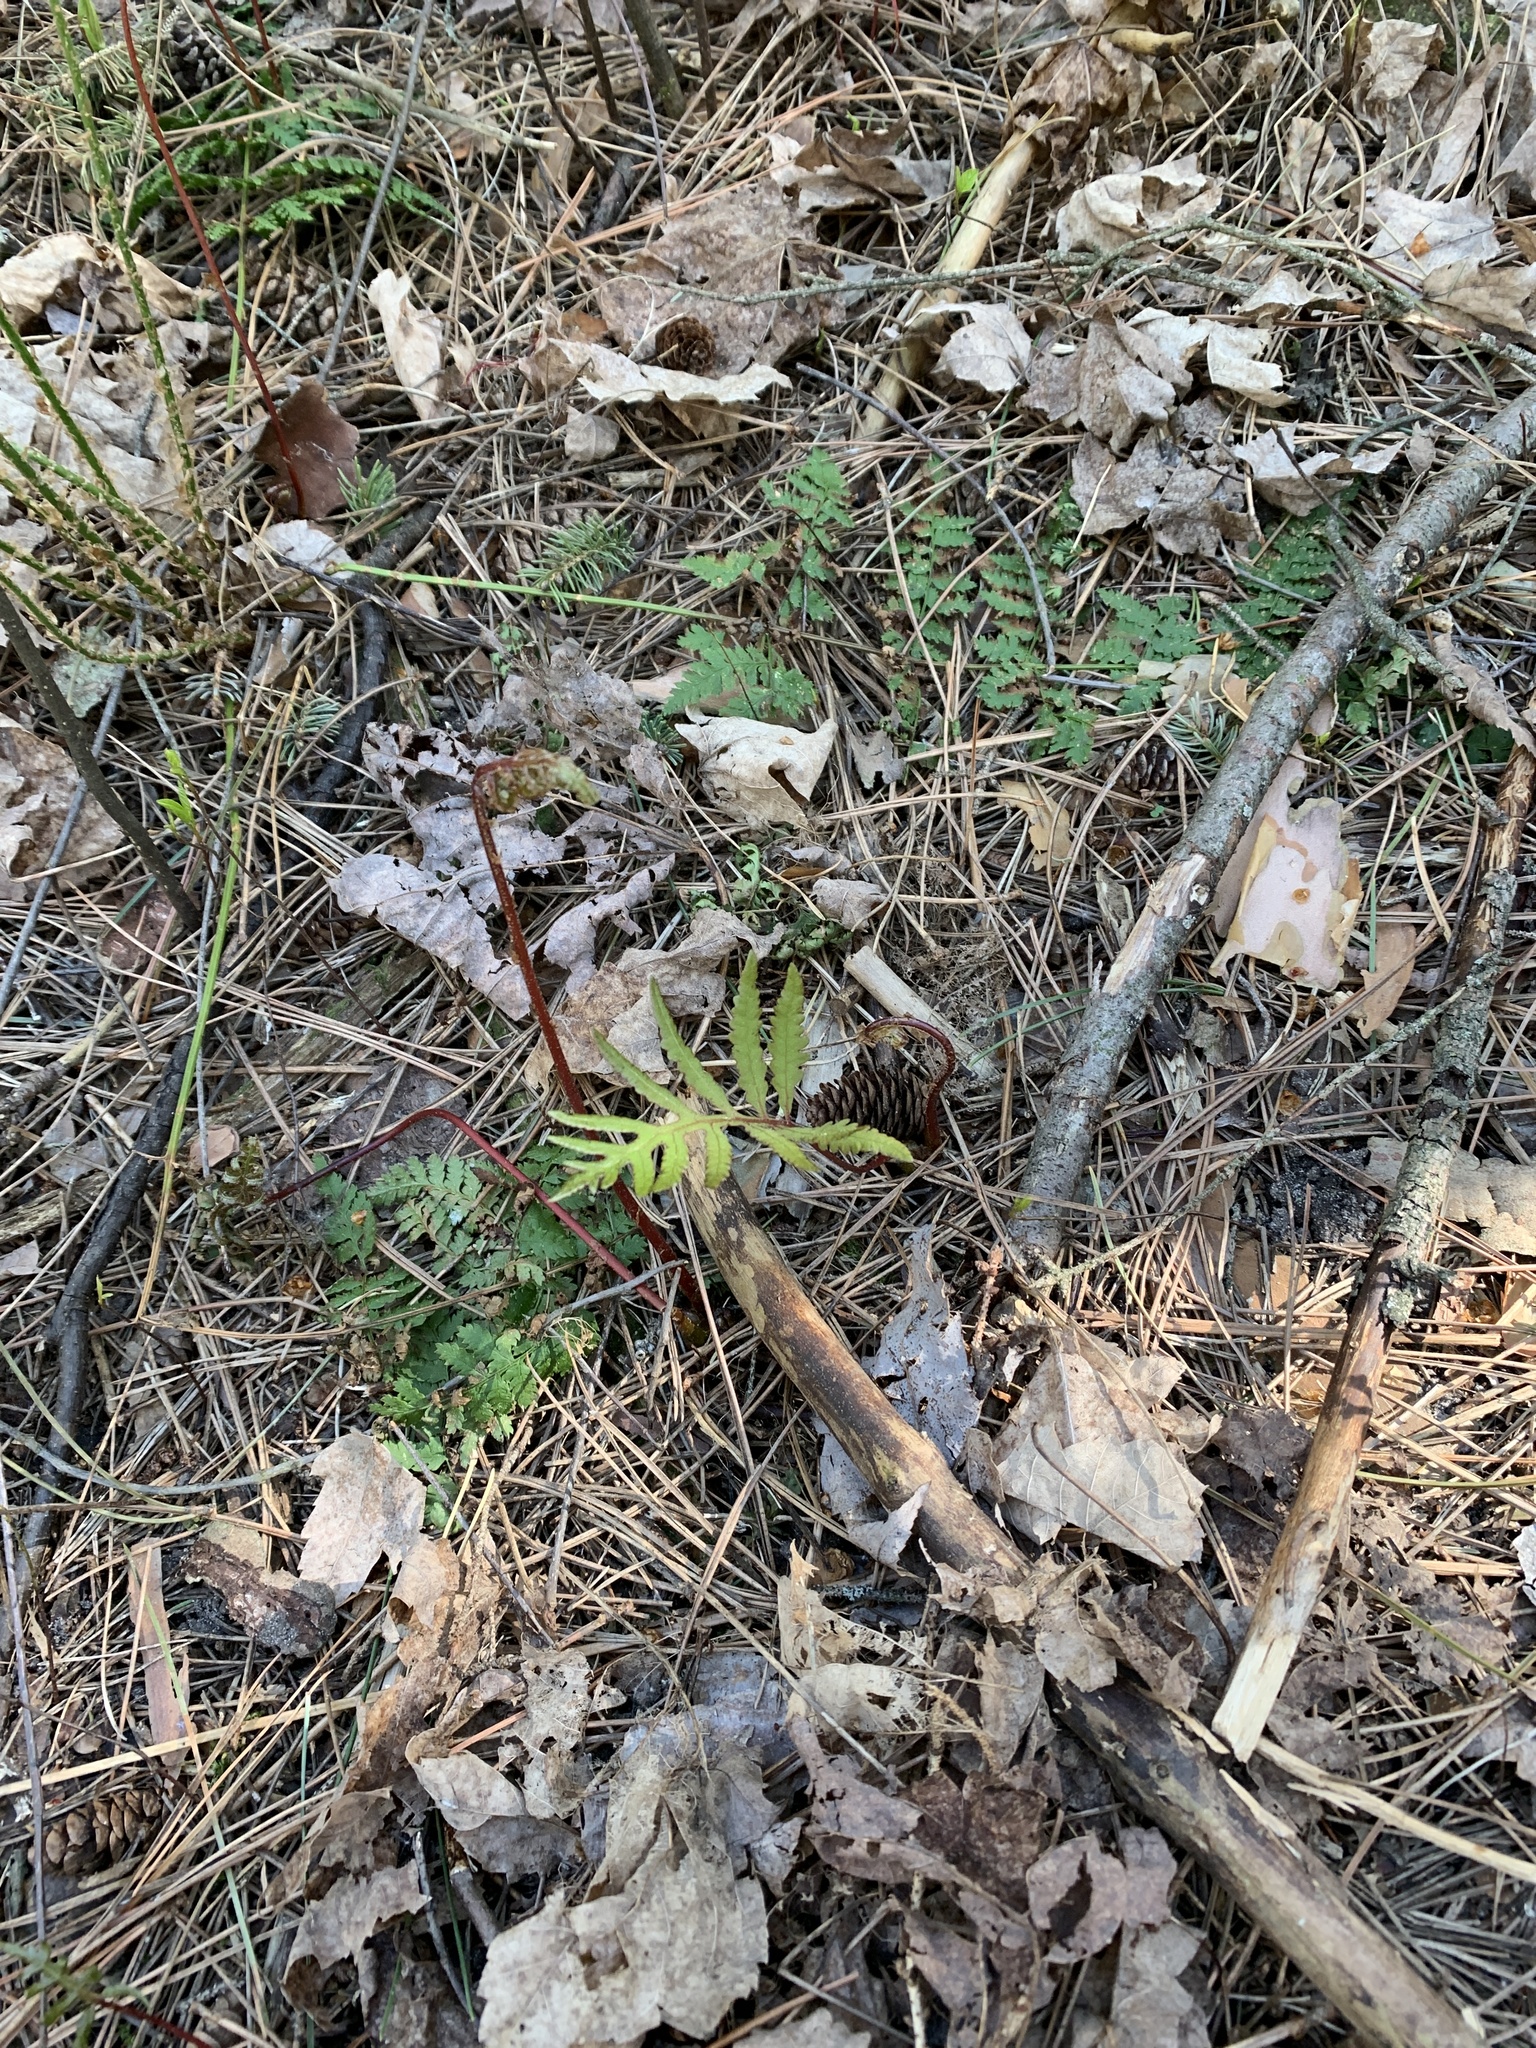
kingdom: Plantae
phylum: Tracheophyta
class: Polypodiopsida
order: Polypodiales
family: Onocleaceae
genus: Onoclea
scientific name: Onoclea sensibilis
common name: Sensitive fern
